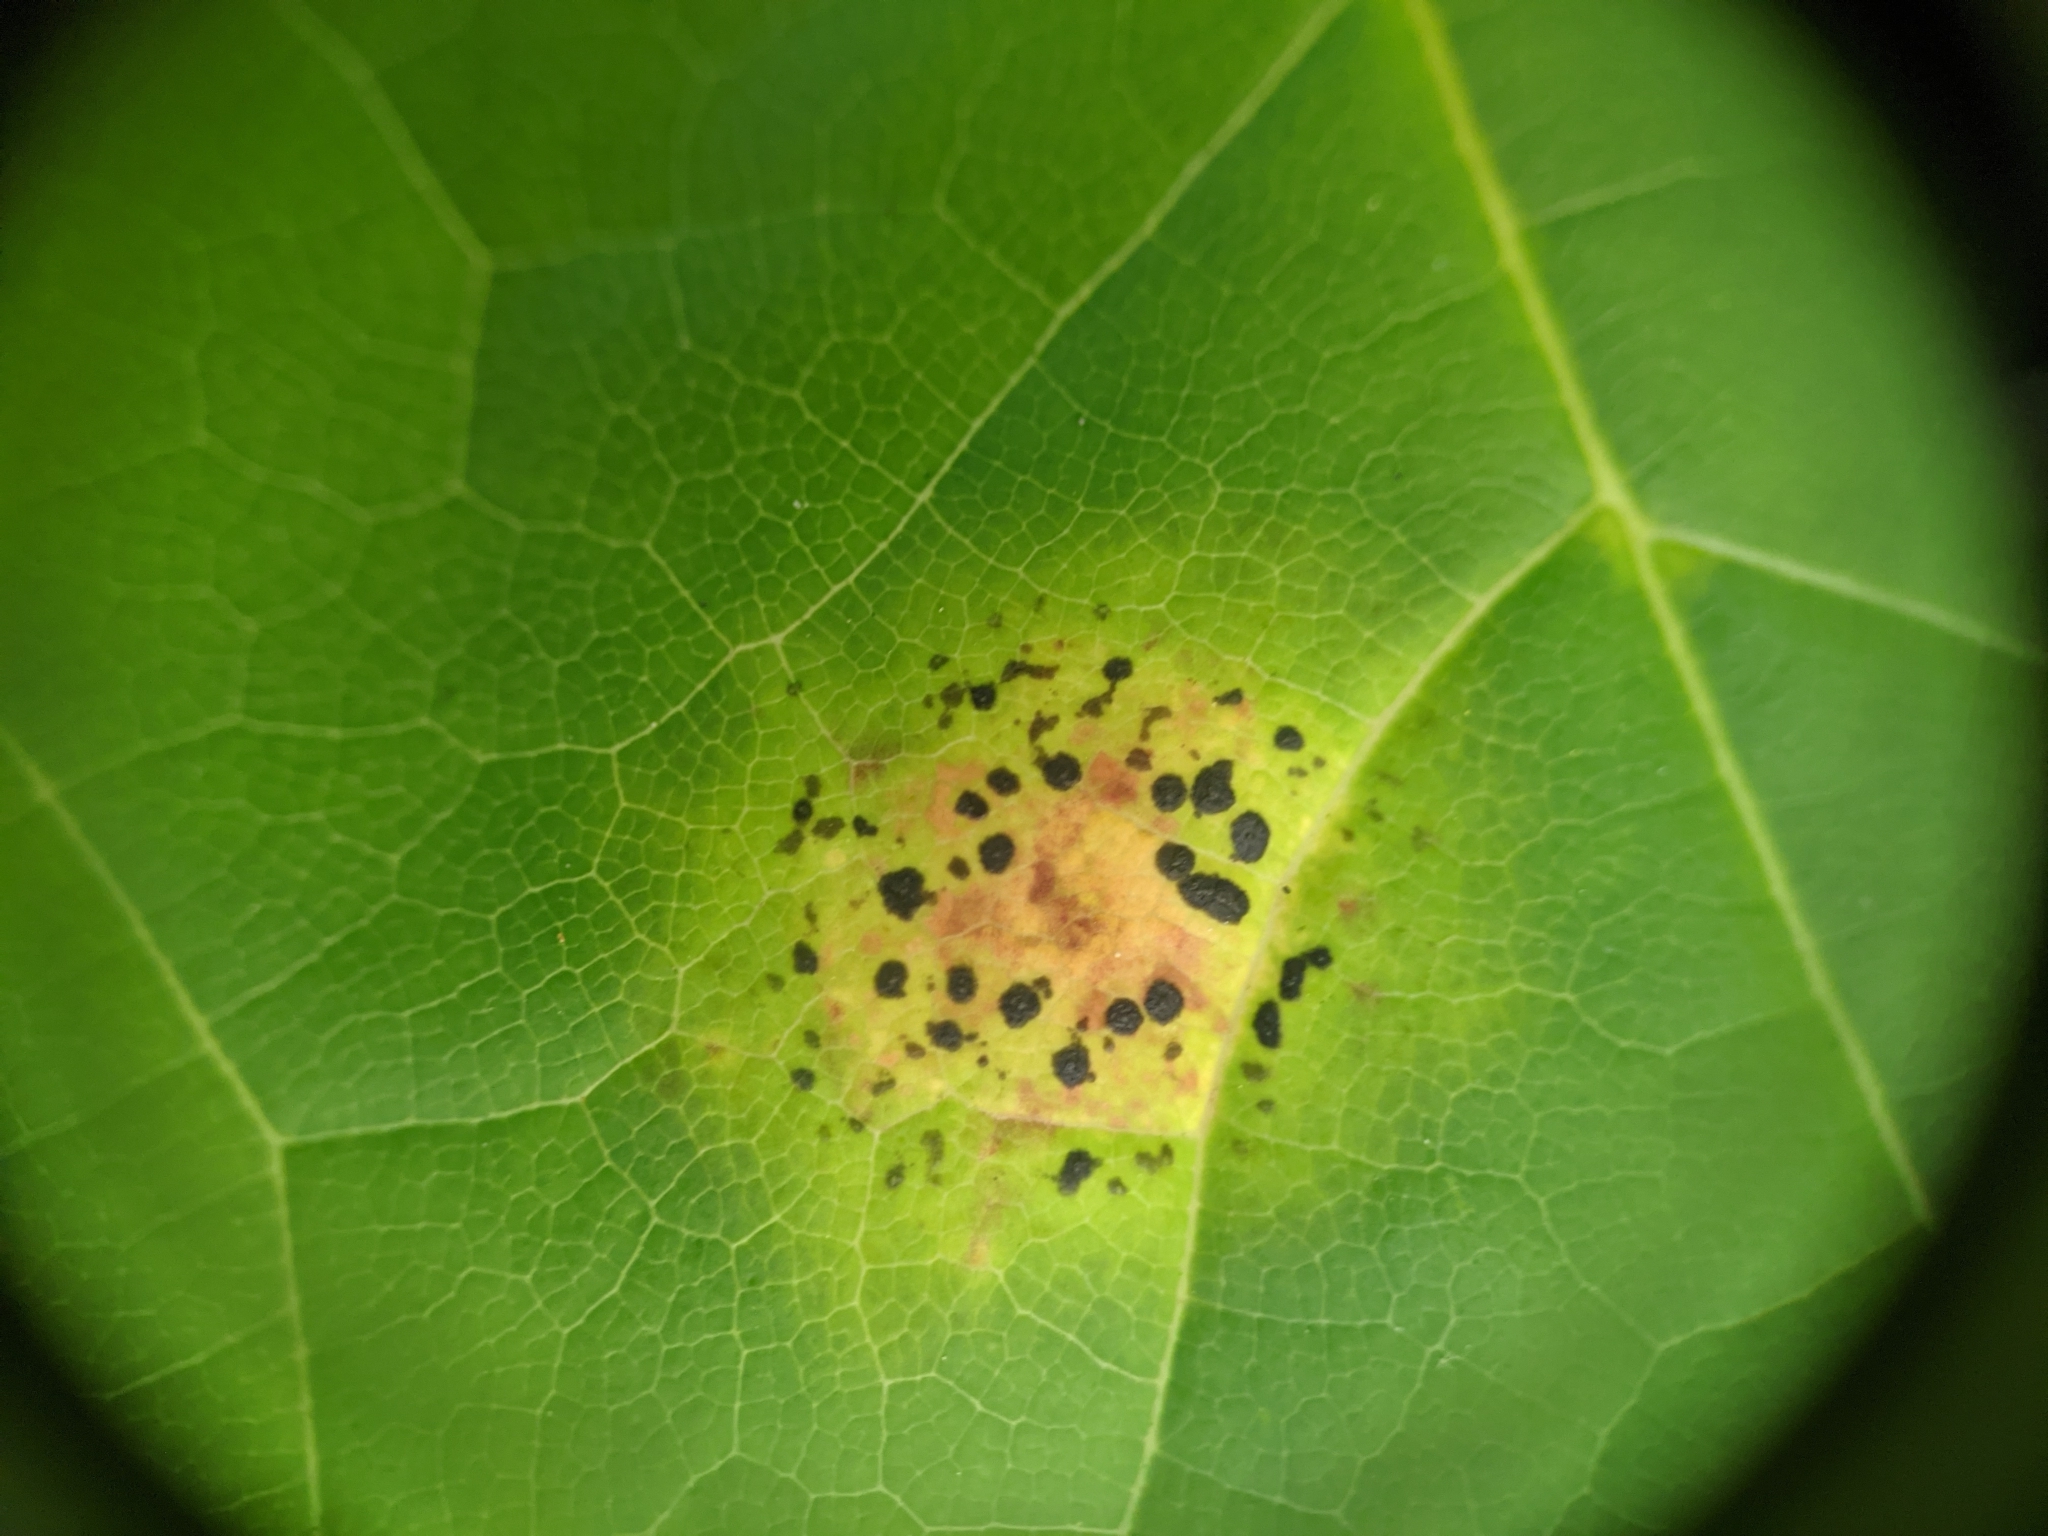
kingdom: Fungi
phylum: Ascomycota
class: Leotiomycetes
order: Rhytismatales
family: Rhytismataceae
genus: Rhytisma
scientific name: Rhytisma acerinum
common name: European tar spot
